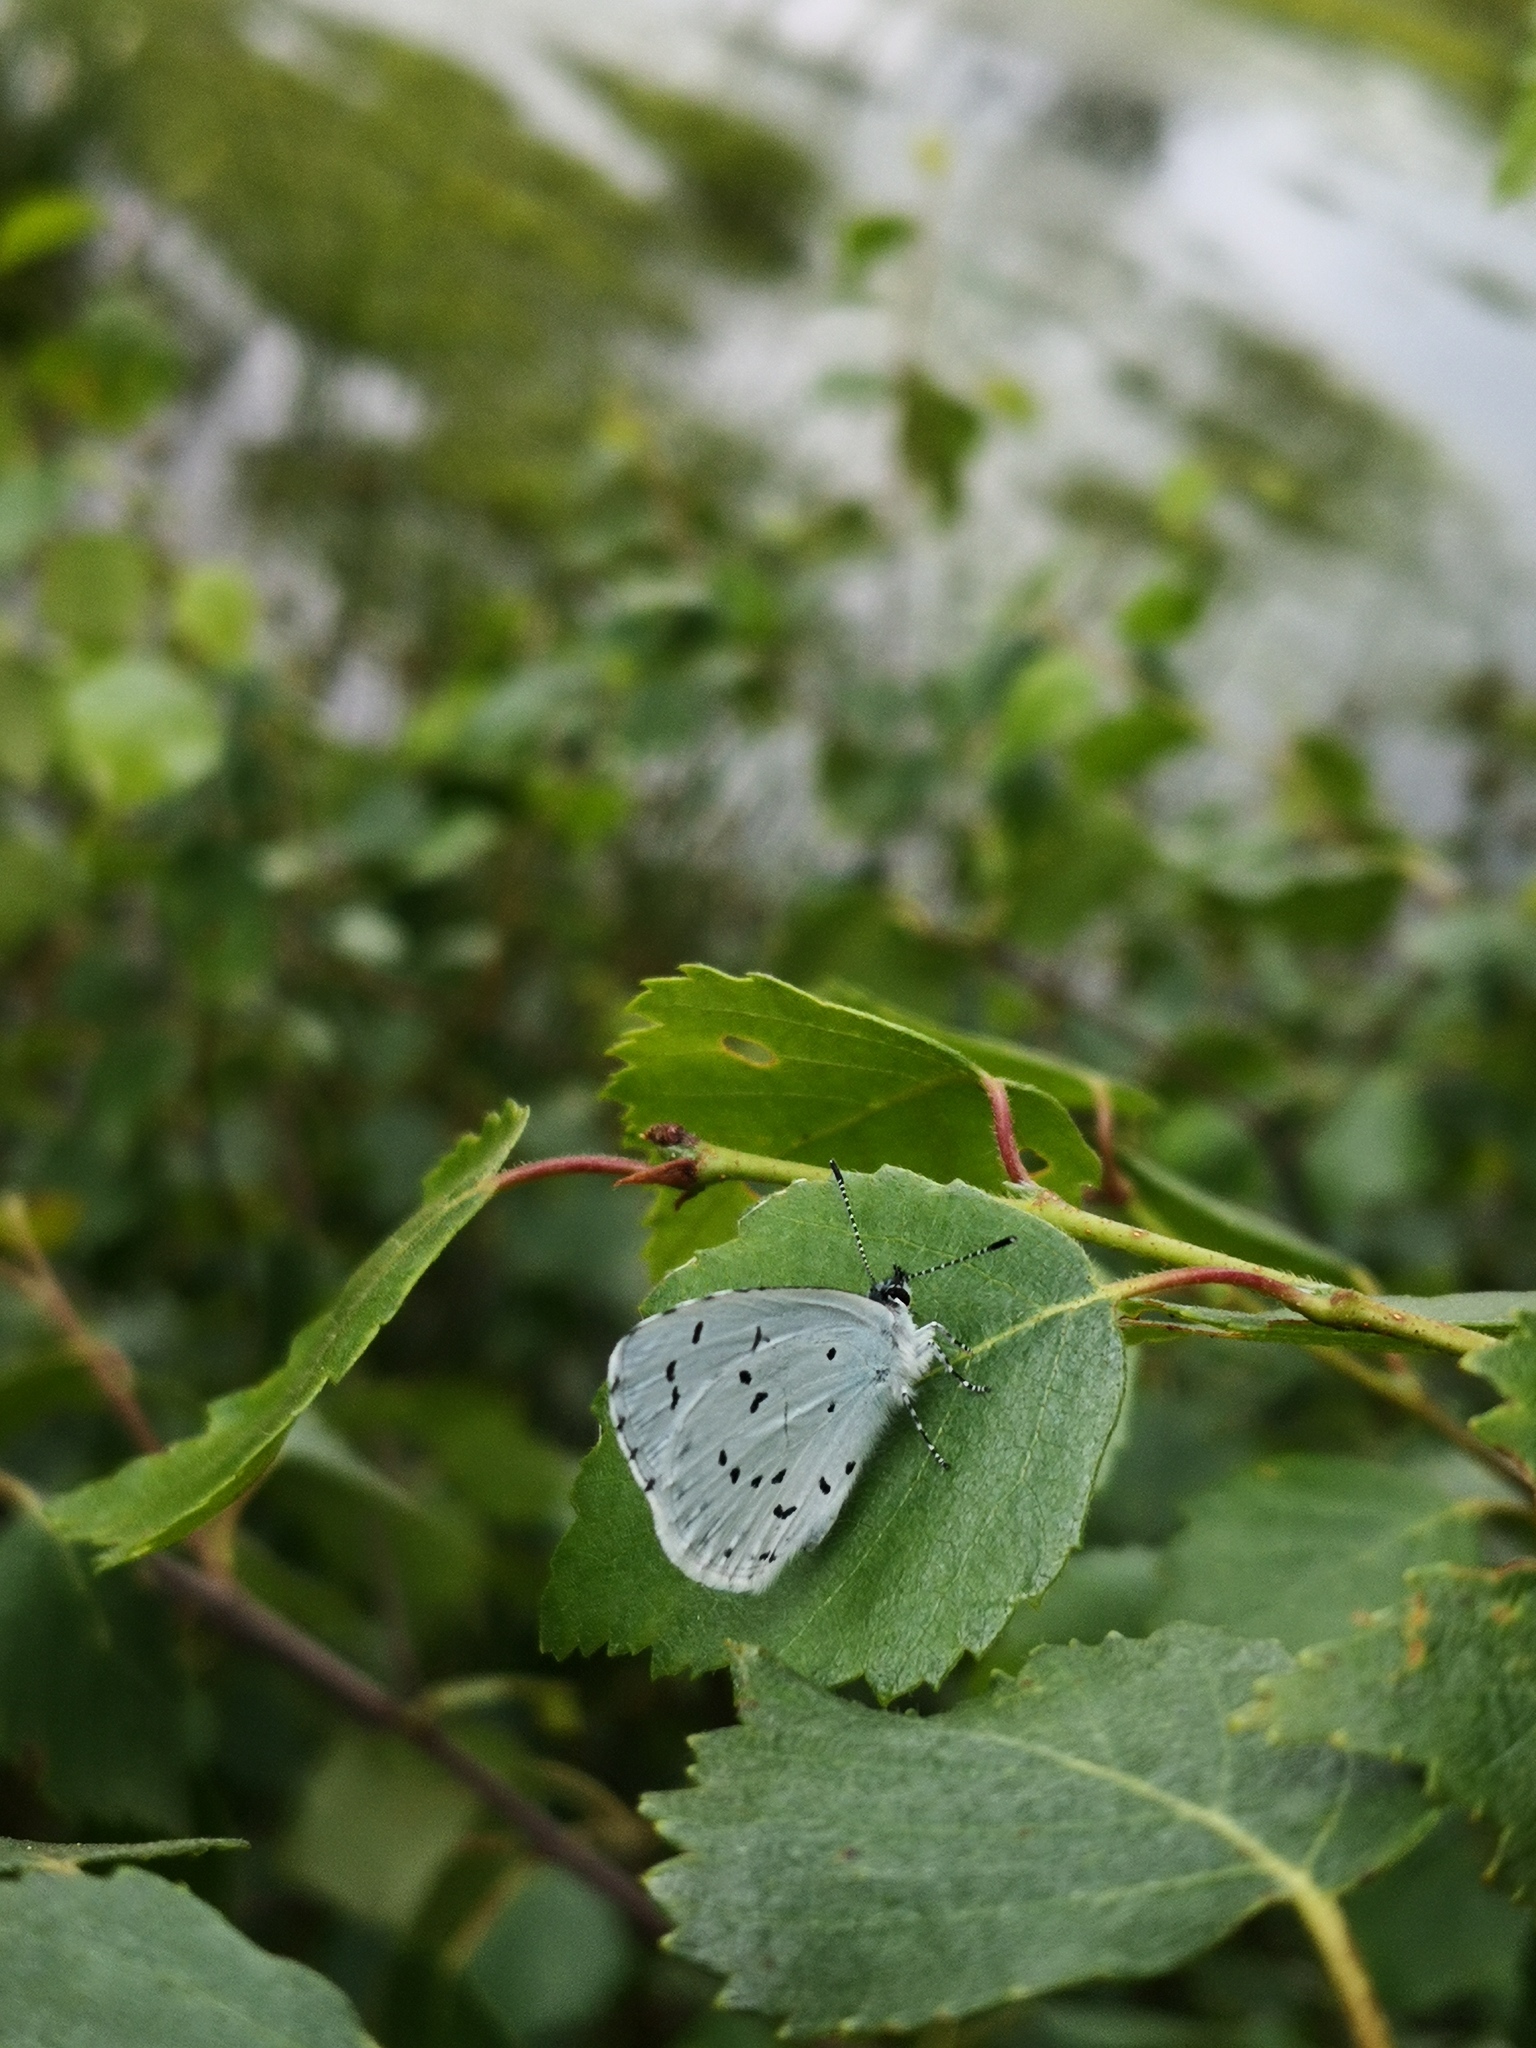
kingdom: Animalia
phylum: Arthropoda
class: Insecta
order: Lepidoptera
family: Lycaenidae
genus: Celastrina
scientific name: Celastrina argiolus
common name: Holly blue
